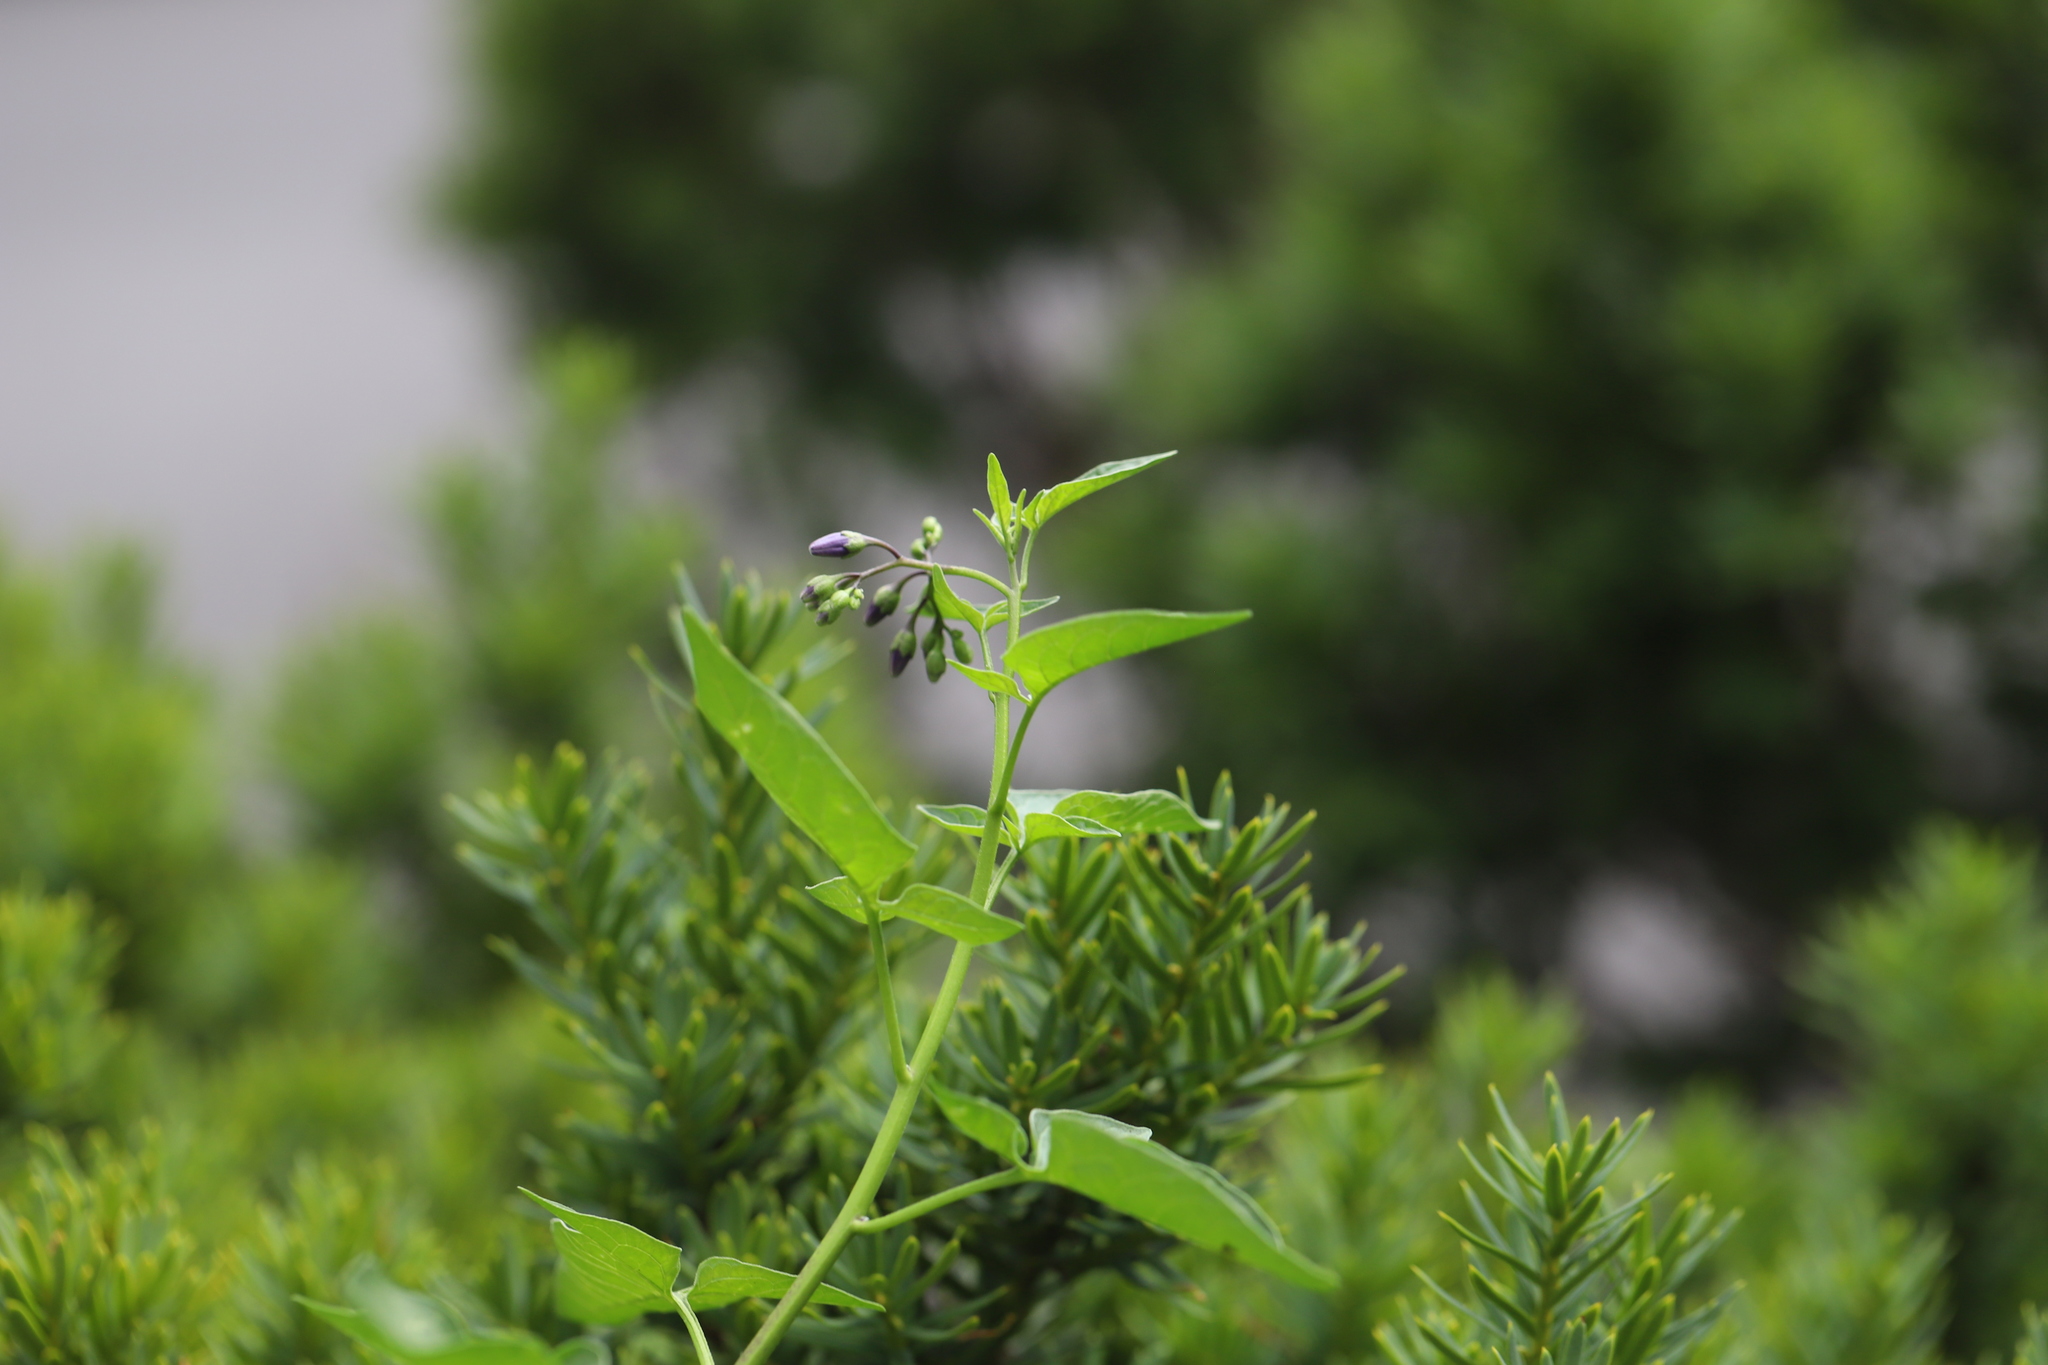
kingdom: Plantae
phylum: Tracheophyta
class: Magnoliopsida
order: Solanales
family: Solanaceae
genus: Solanum
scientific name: Solanum dulcamara
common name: Climbing nightshade
